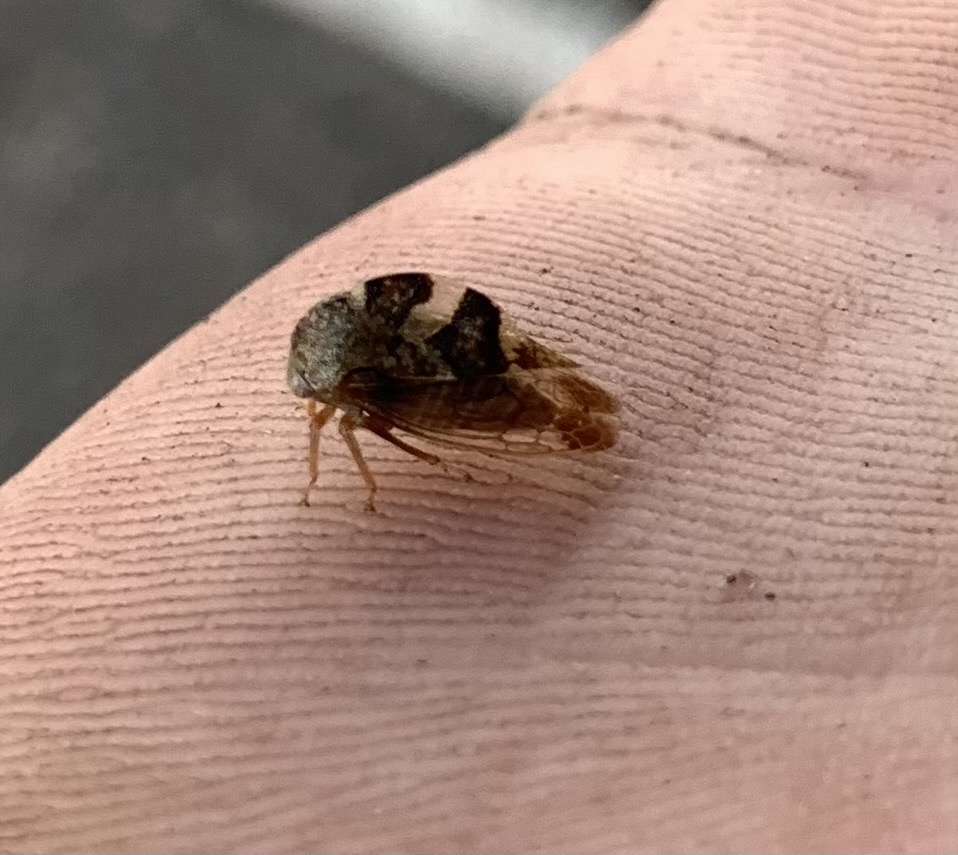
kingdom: Animalia
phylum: Arthropoda
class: Insecta
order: Hemiptera
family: Membracidae
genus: Cyrtolobus
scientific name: Cyrtolobus tuberosa
